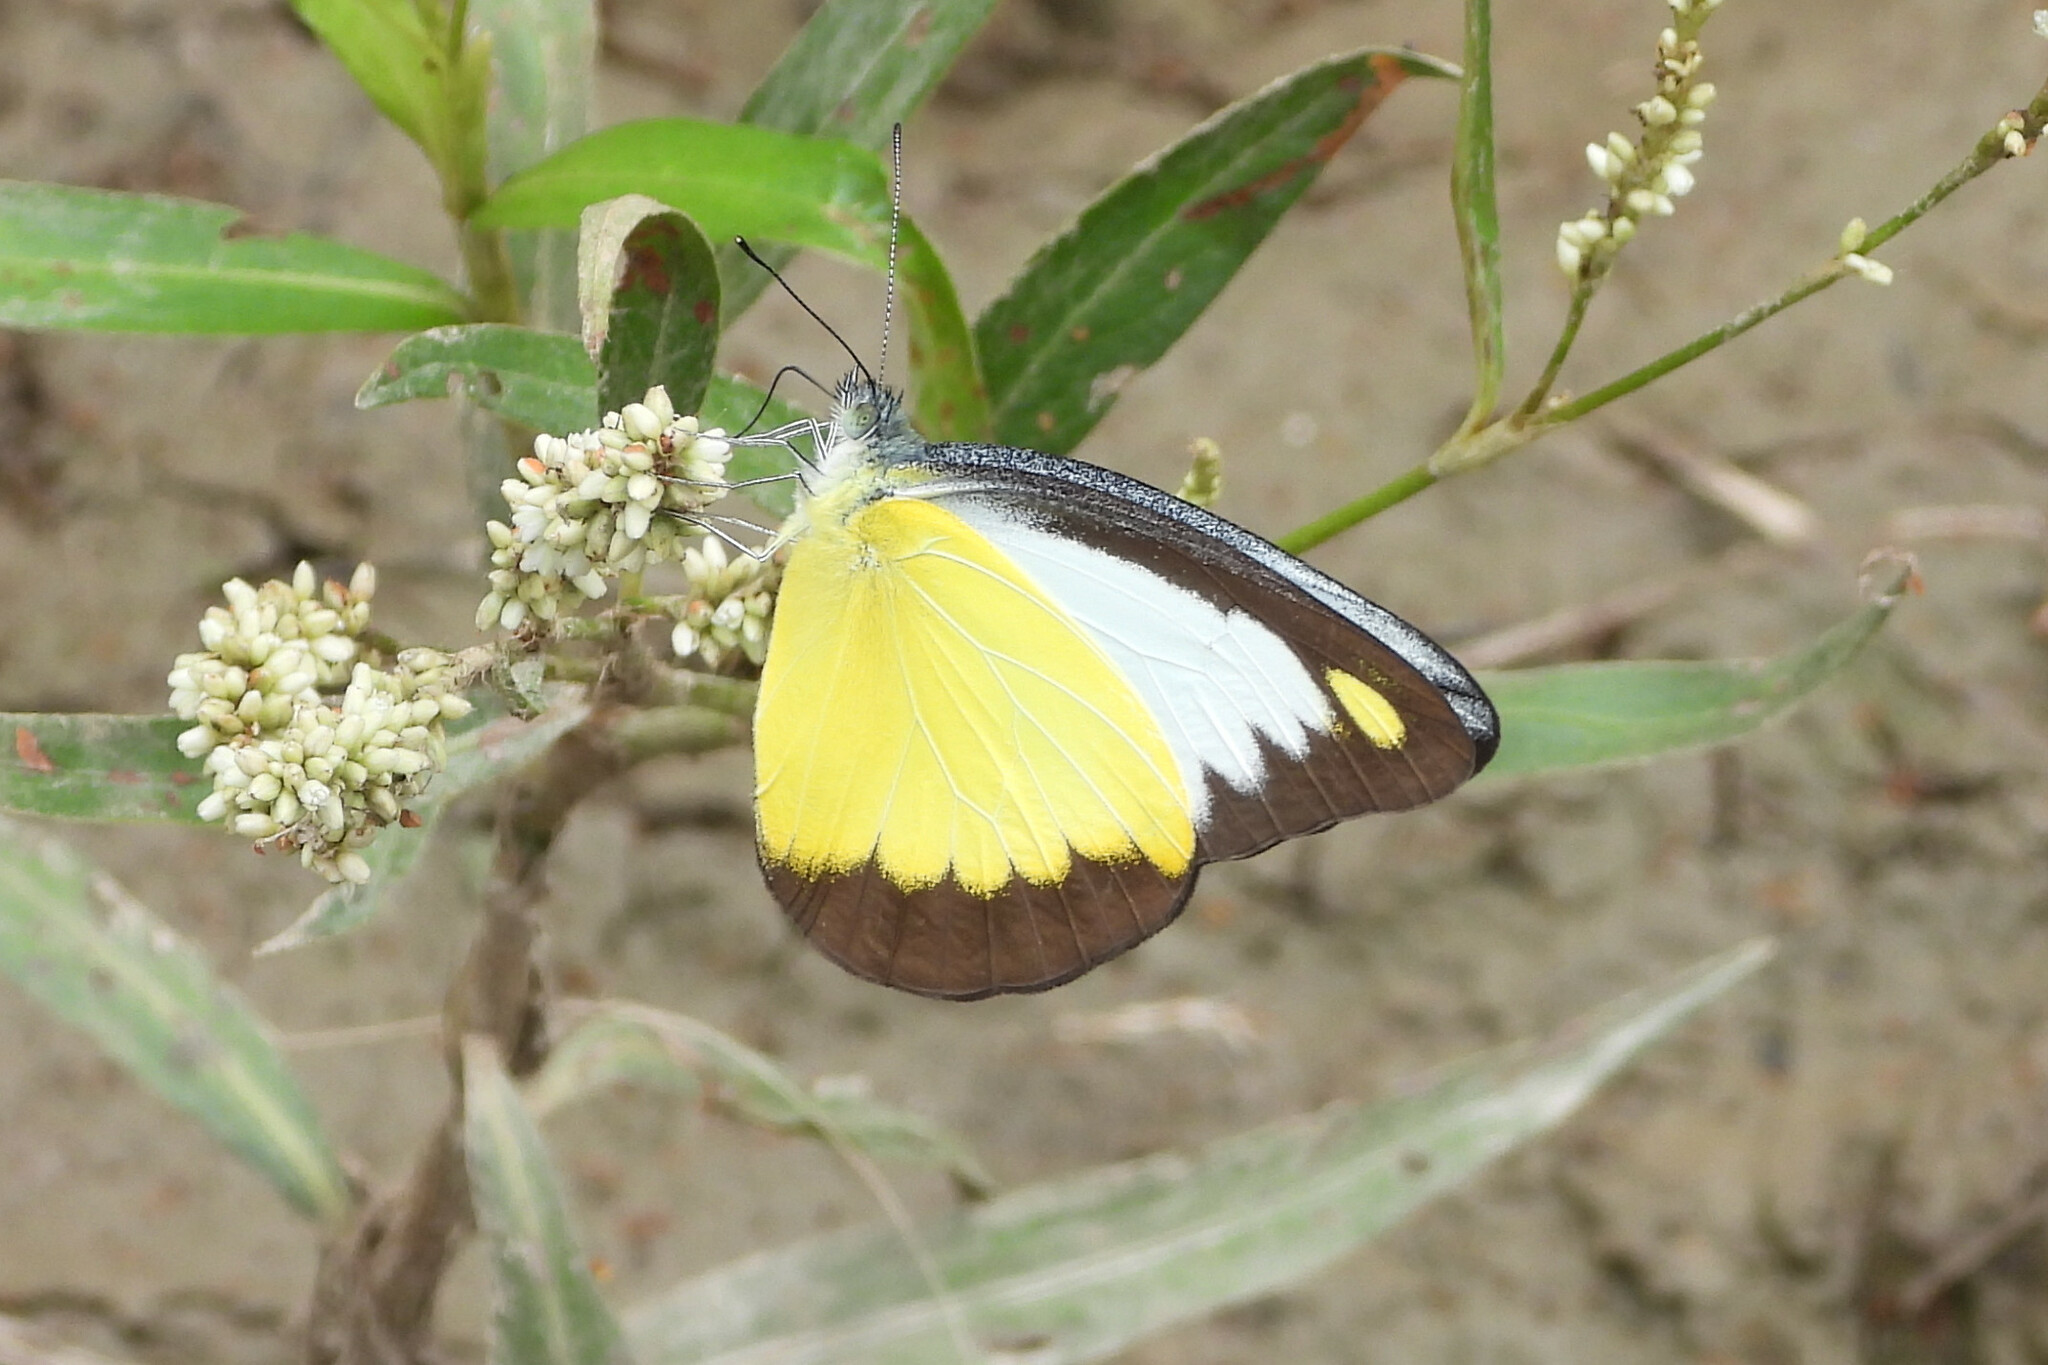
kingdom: Animalia
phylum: Arthropoda
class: Insecta
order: Lepidoptera
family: Pieridae
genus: Appias
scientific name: Appias lyncida
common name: Chocolate albatross
